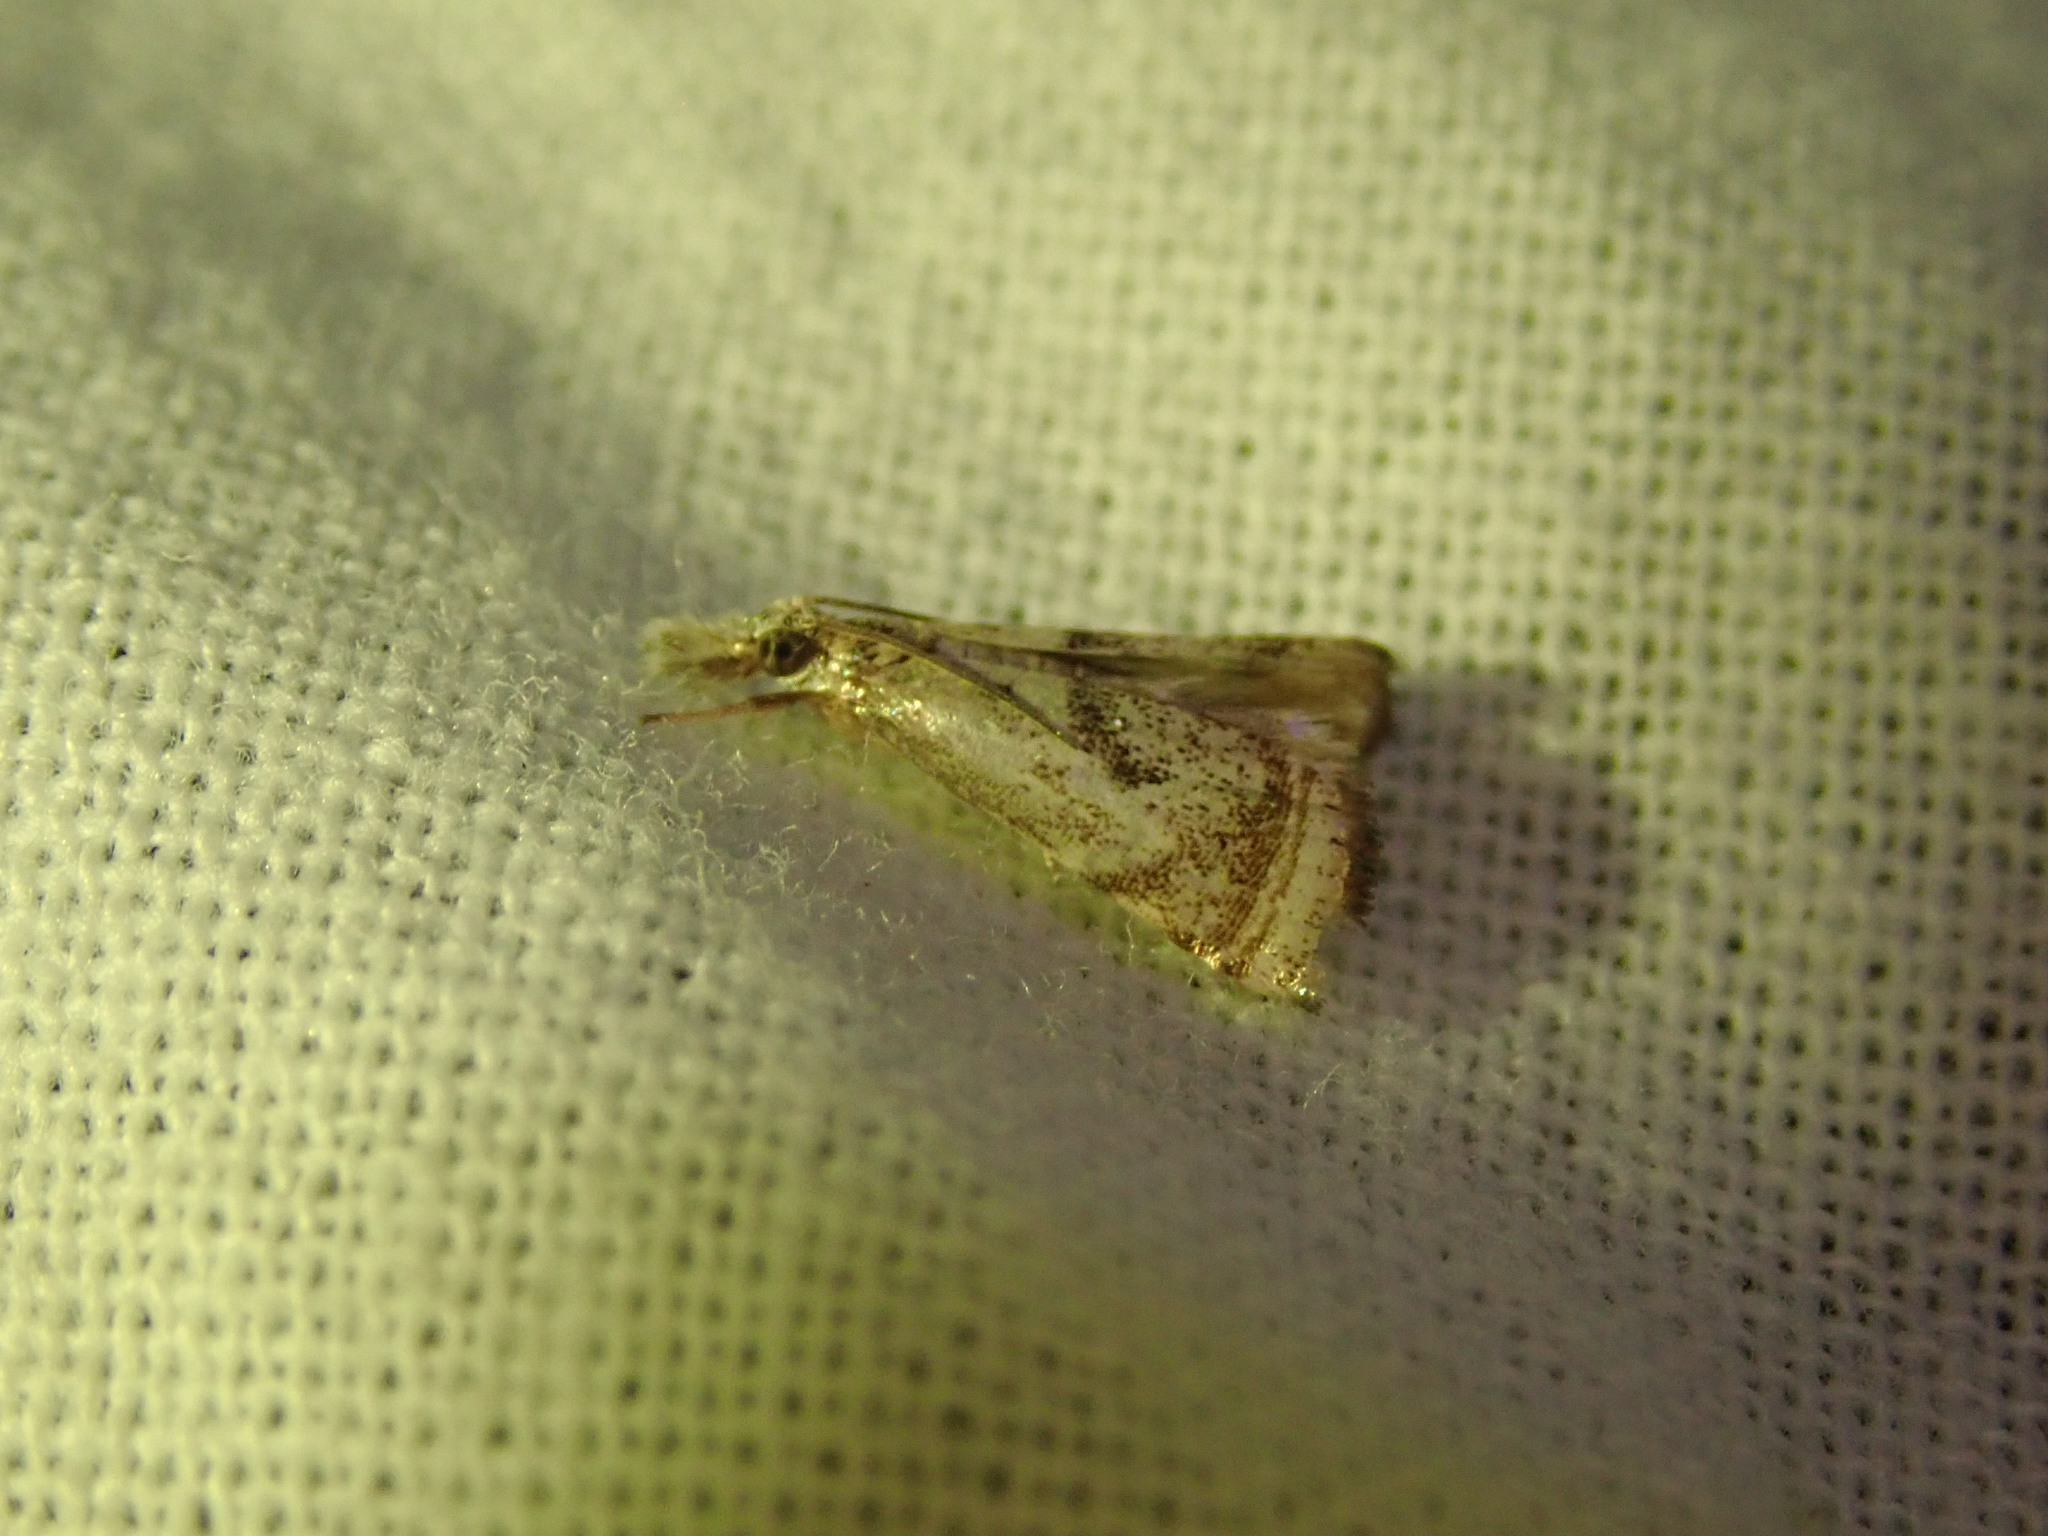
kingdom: Animalia
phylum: Arthropoda
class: Insecta
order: Lepidoptera
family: Crambidae
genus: Microcrambus
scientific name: Microcrambus elegans
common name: Elegant grass-veneer
